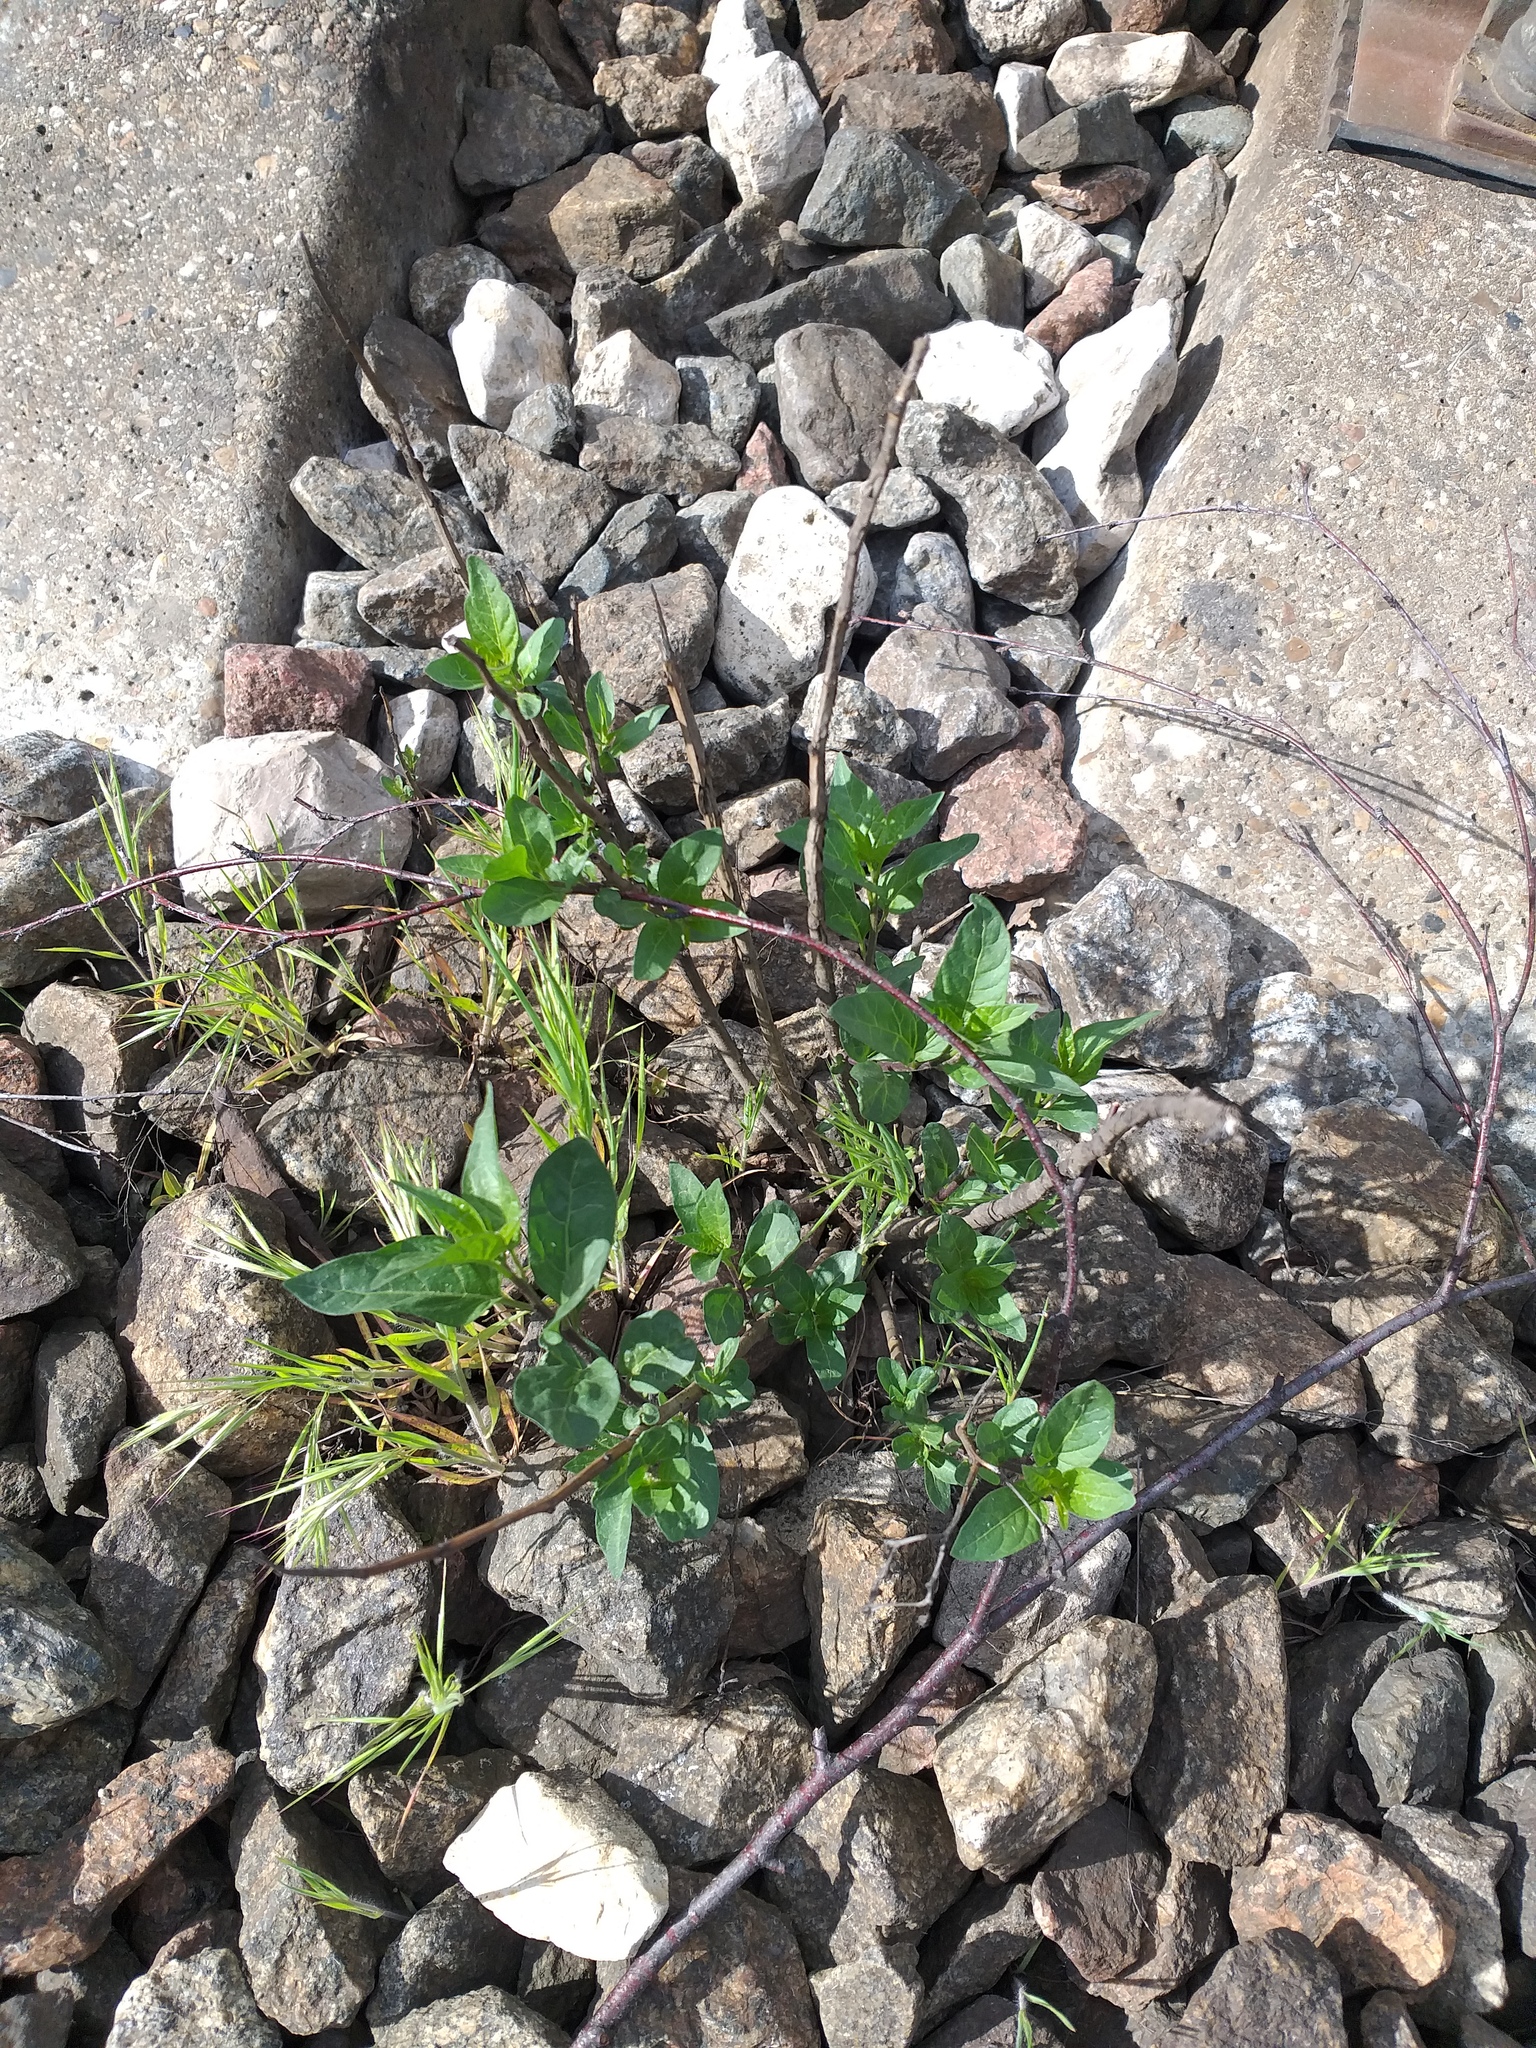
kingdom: Plantae
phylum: Tracheophyta
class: Magnoliopsida
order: Solanales
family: Solanaceae
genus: Solanum
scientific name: Solanum dulcamara
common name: Climbing nightshade
